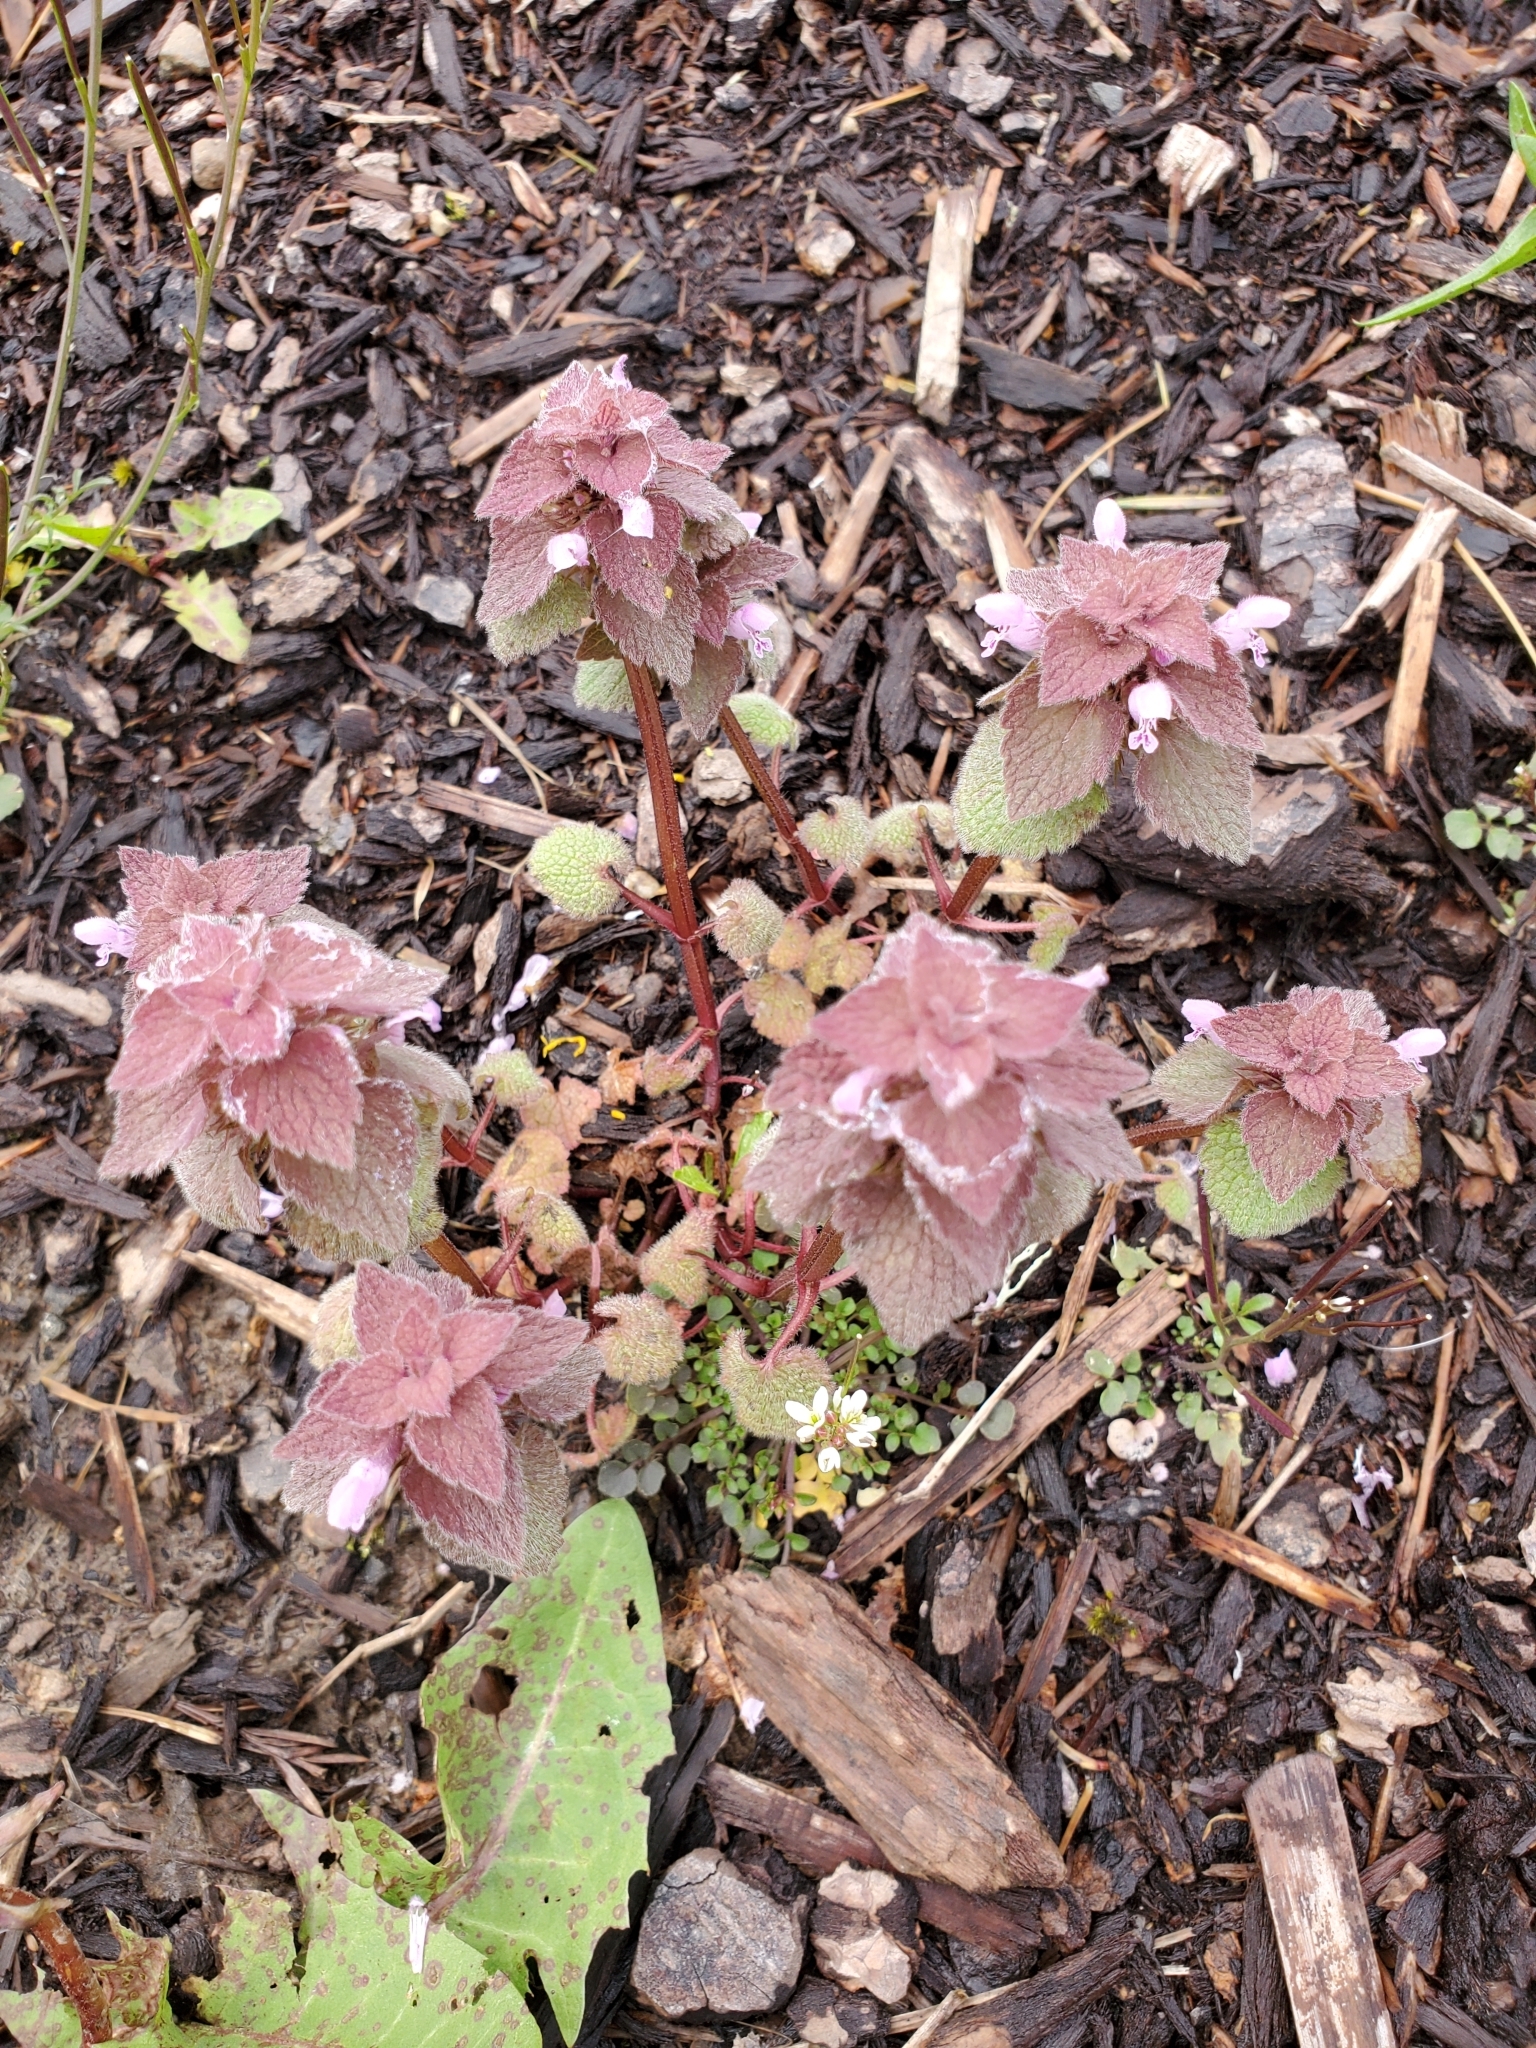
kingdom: Plantae
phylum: Tracheophyta
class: Magnoliopsida
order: Lamiales
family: Lamiaceae
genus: Lamium
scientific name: Lamium purpureum
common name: Red dead-nettle
